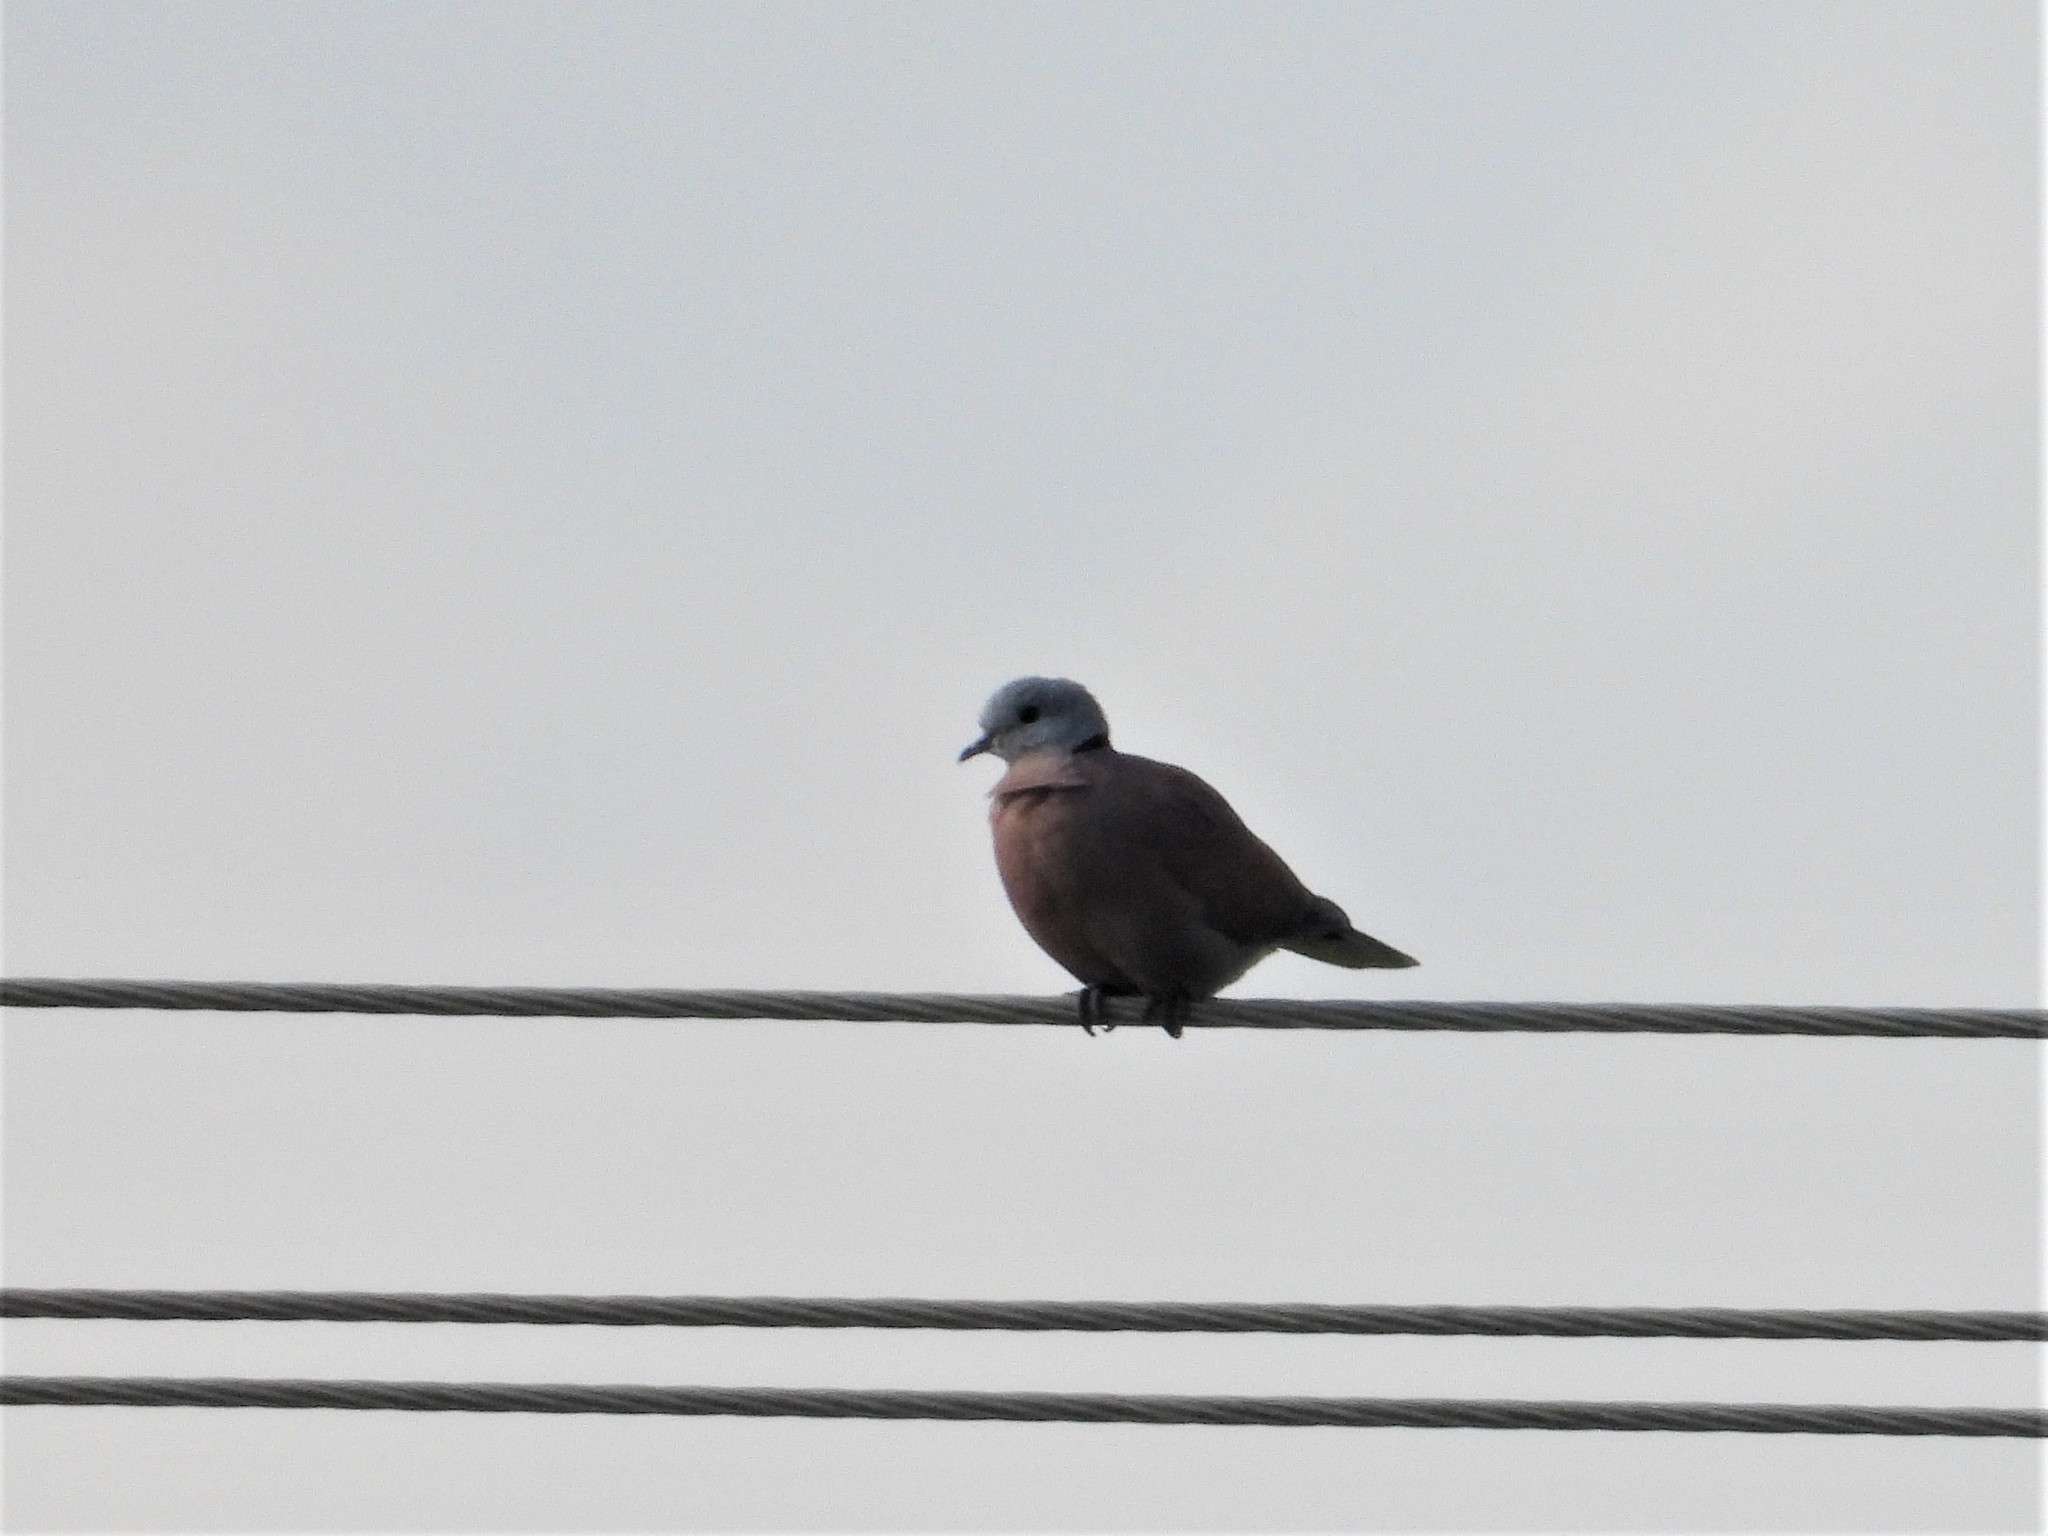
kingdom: Animalia
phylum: Chordata
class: Aves
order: Columbiformes
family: Columbidae
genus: Streptopelia
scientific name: Streptopelia tranquebarica
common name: Red turtle dove
